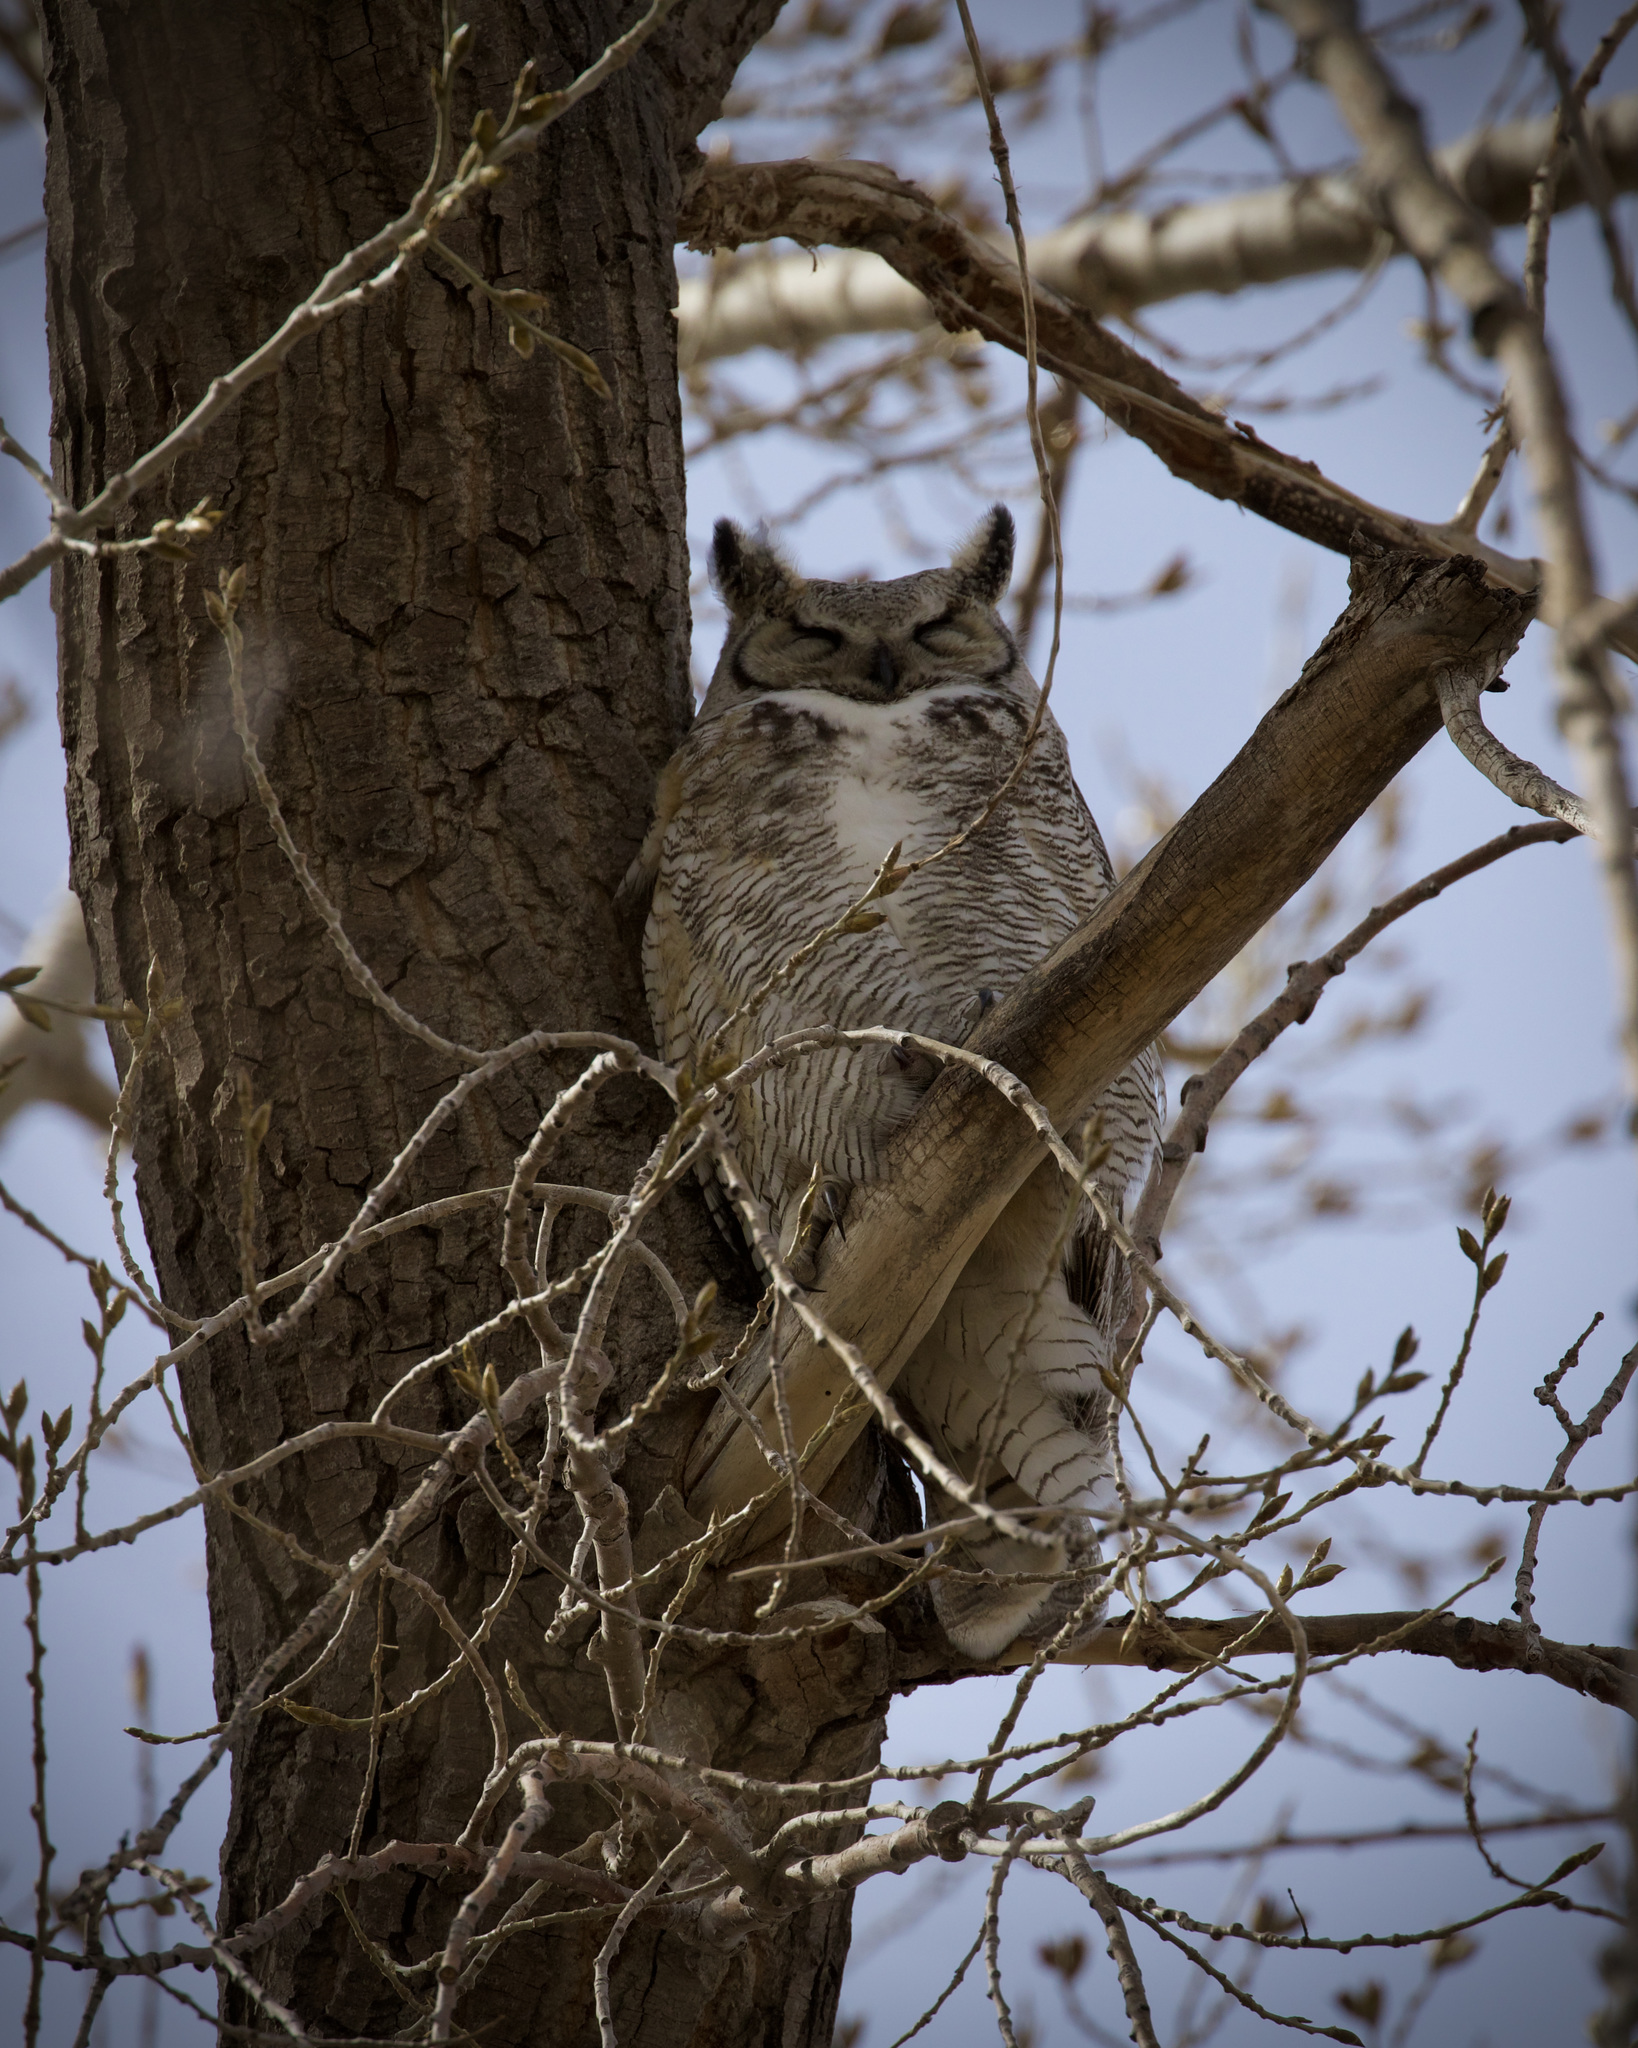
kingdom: Animalia
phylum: Chordata
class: Aves
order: Strigiformes
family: Strigidae
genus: Bubo
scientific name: Bubo virginianus
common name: Great horned owl
